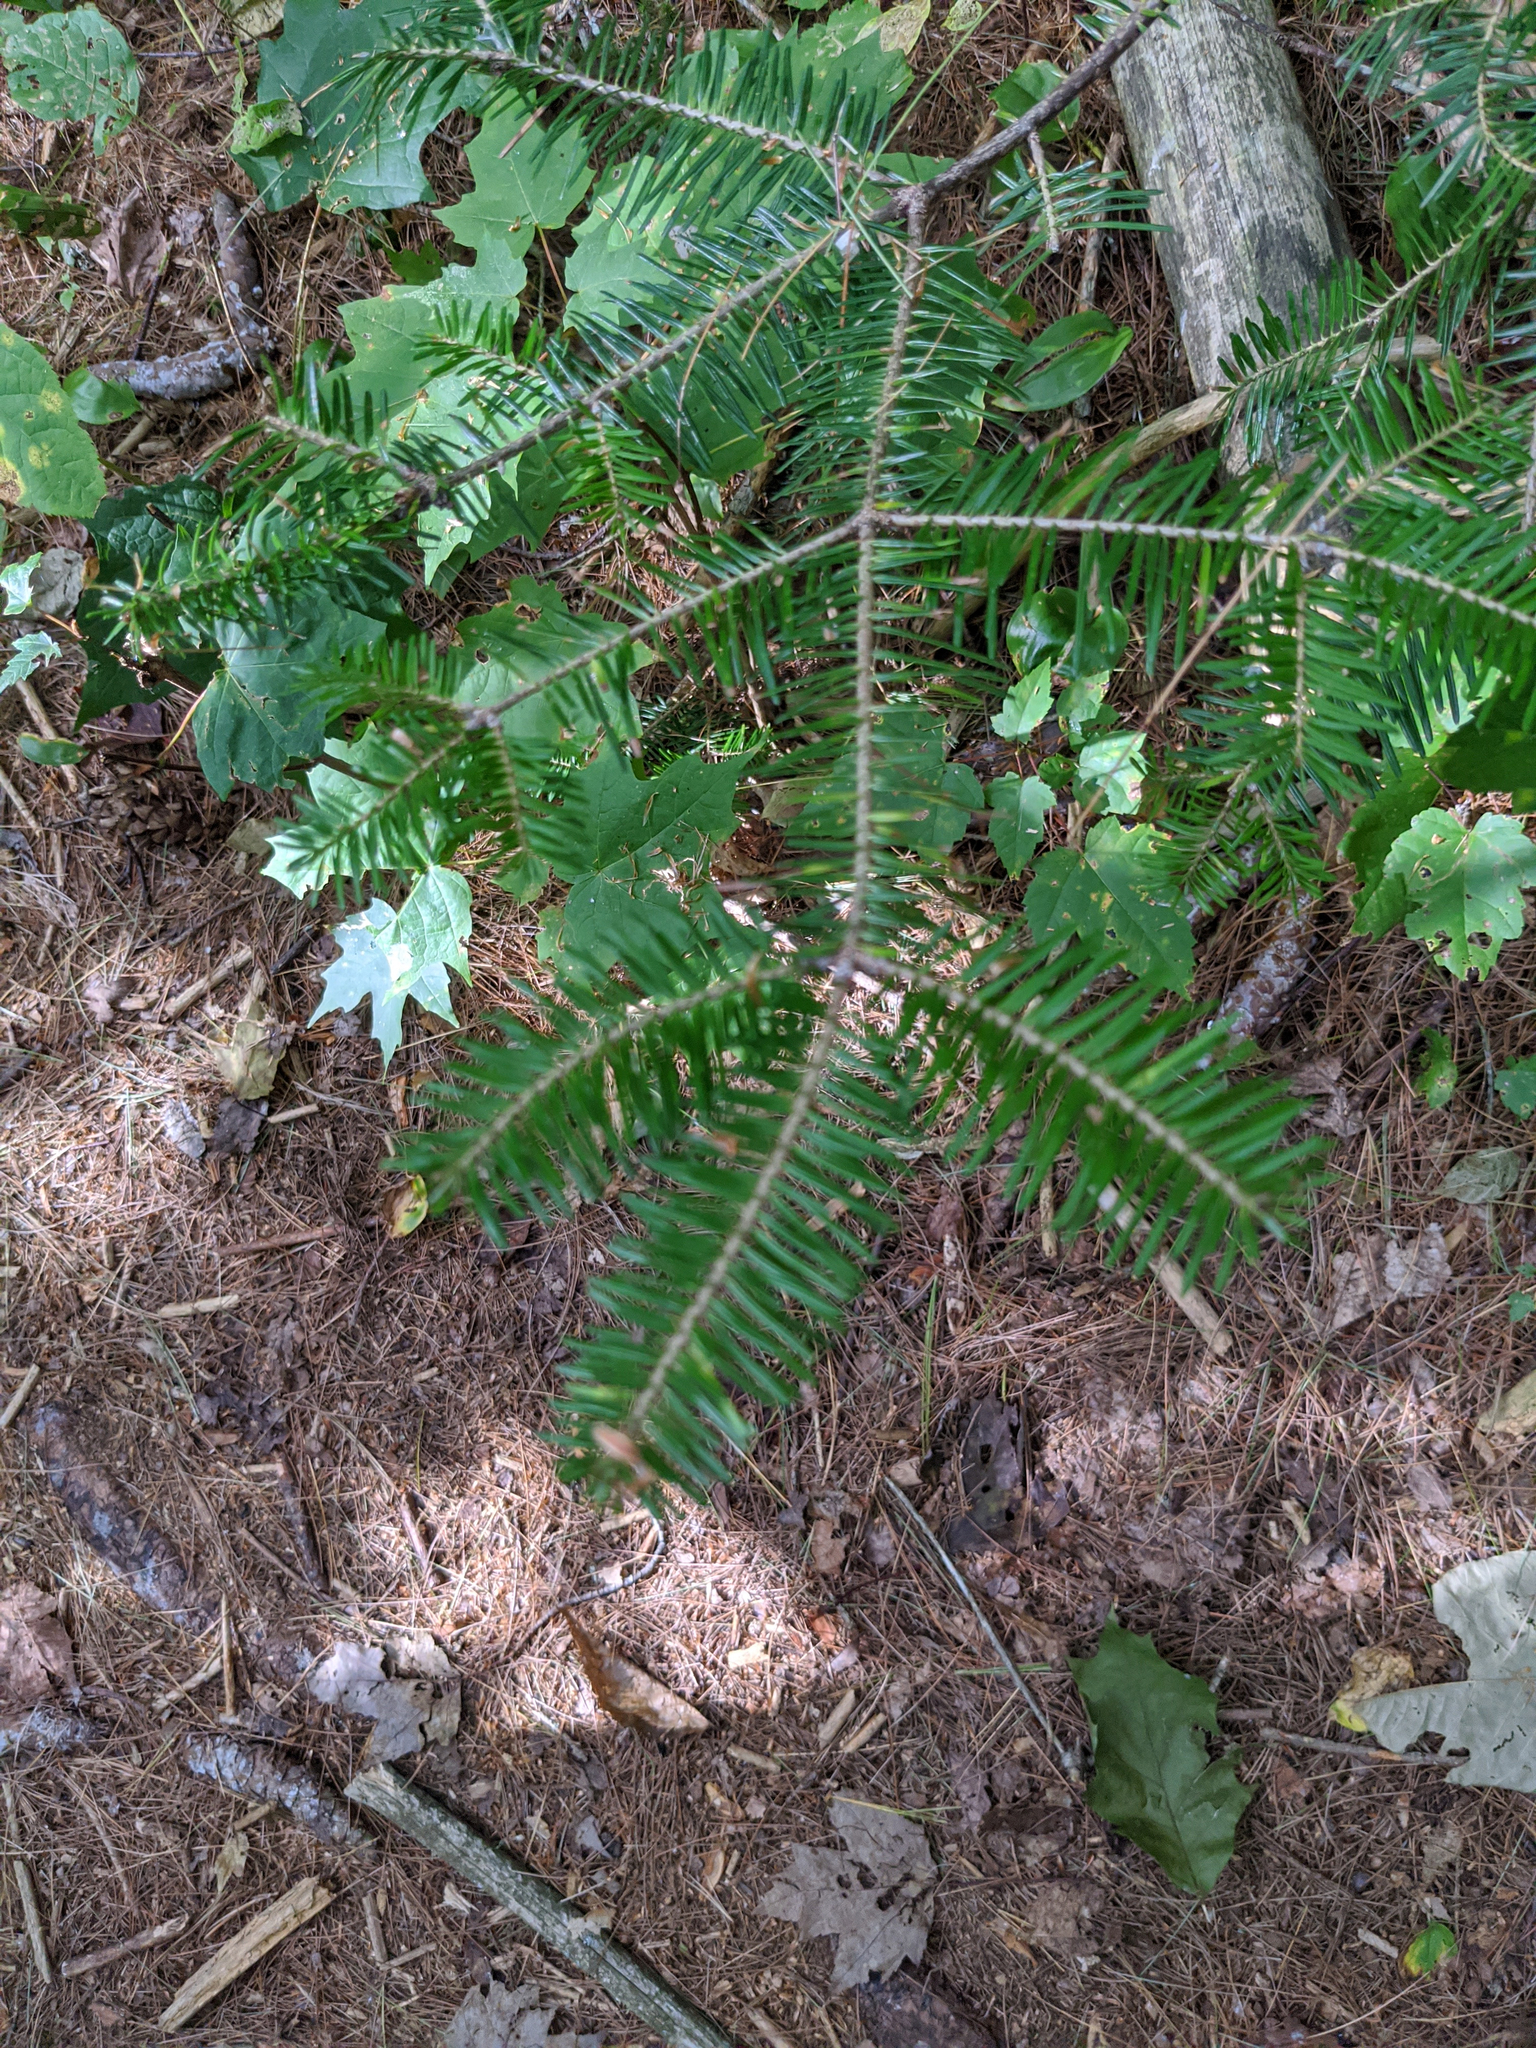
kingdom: Plantae
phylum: Tracheophyta
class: Pinopsida
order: Pinales
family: Pinaceae
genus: Abies
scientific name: Abies balsamea
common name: Balsam fir
